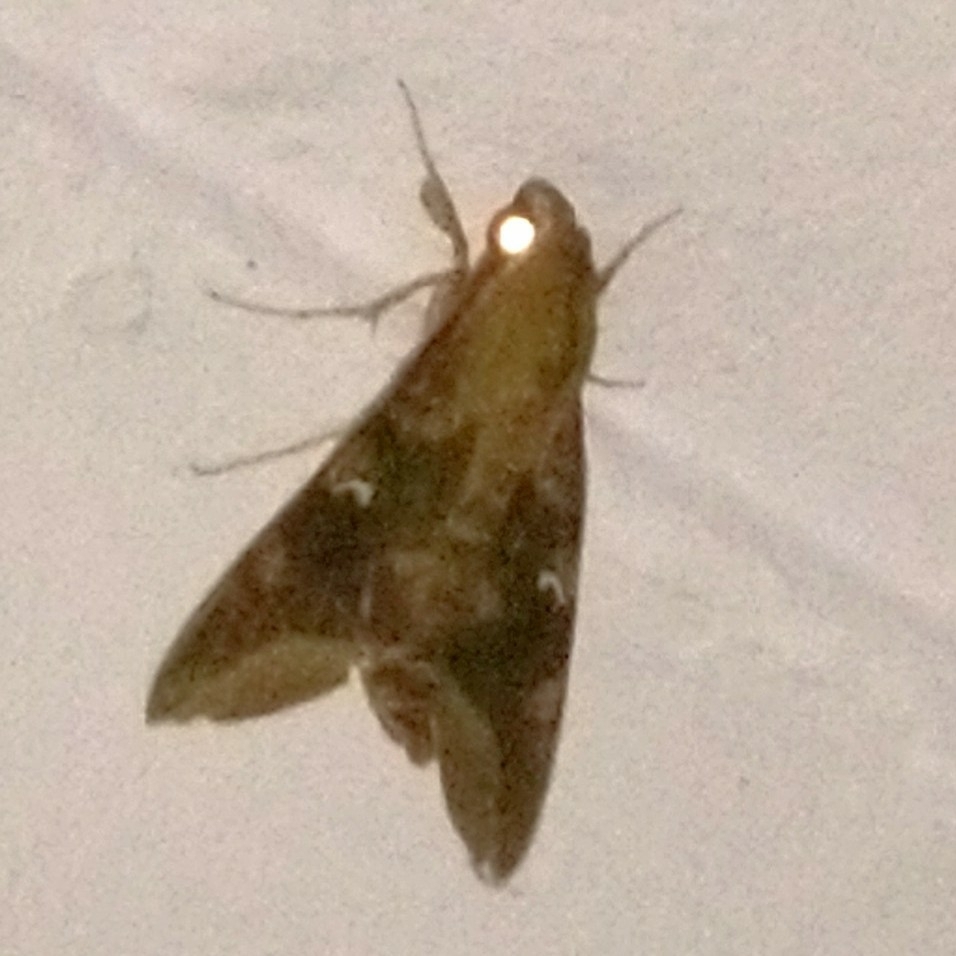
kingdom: Animalia
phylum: Arthropoda
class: Insecta
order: Lepidoptera
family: Sphingidae
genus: Nephele
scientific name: Nephele comma
